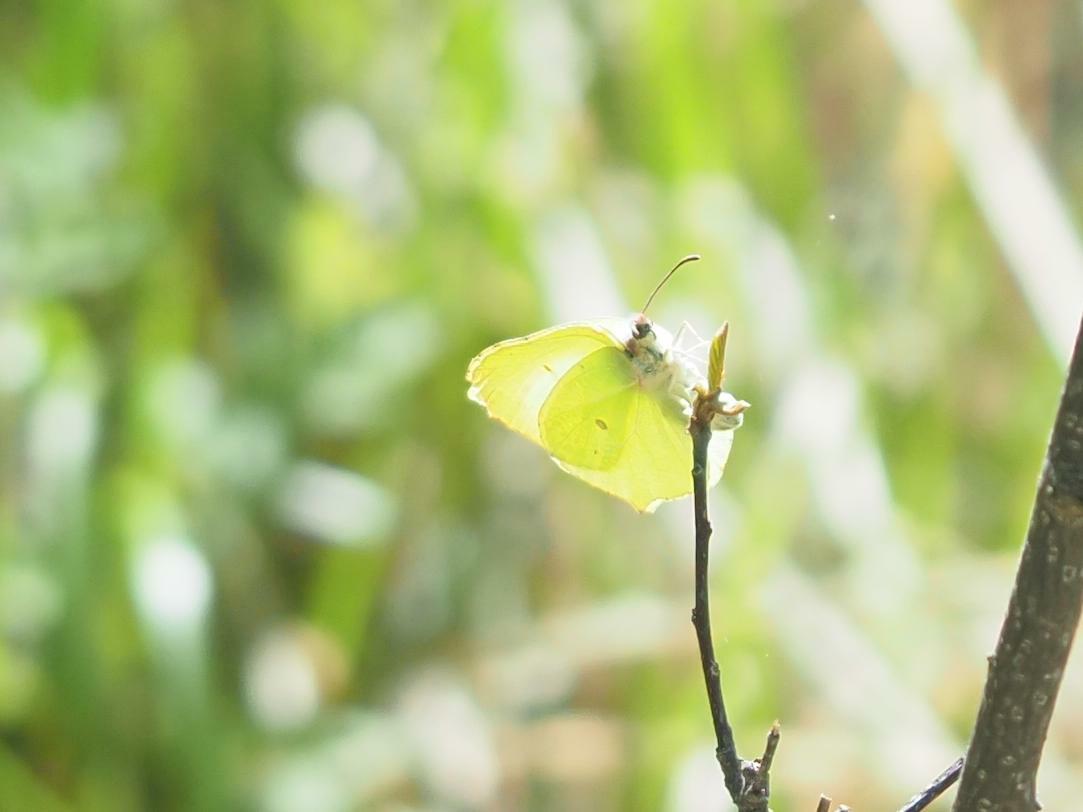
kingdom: Animalia
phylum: Arthropoda
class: Insecta
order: Lepidoptera
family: Pieridae
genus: Gonepteryx
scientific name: Gonepteryx rhamni
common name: Brimstone
